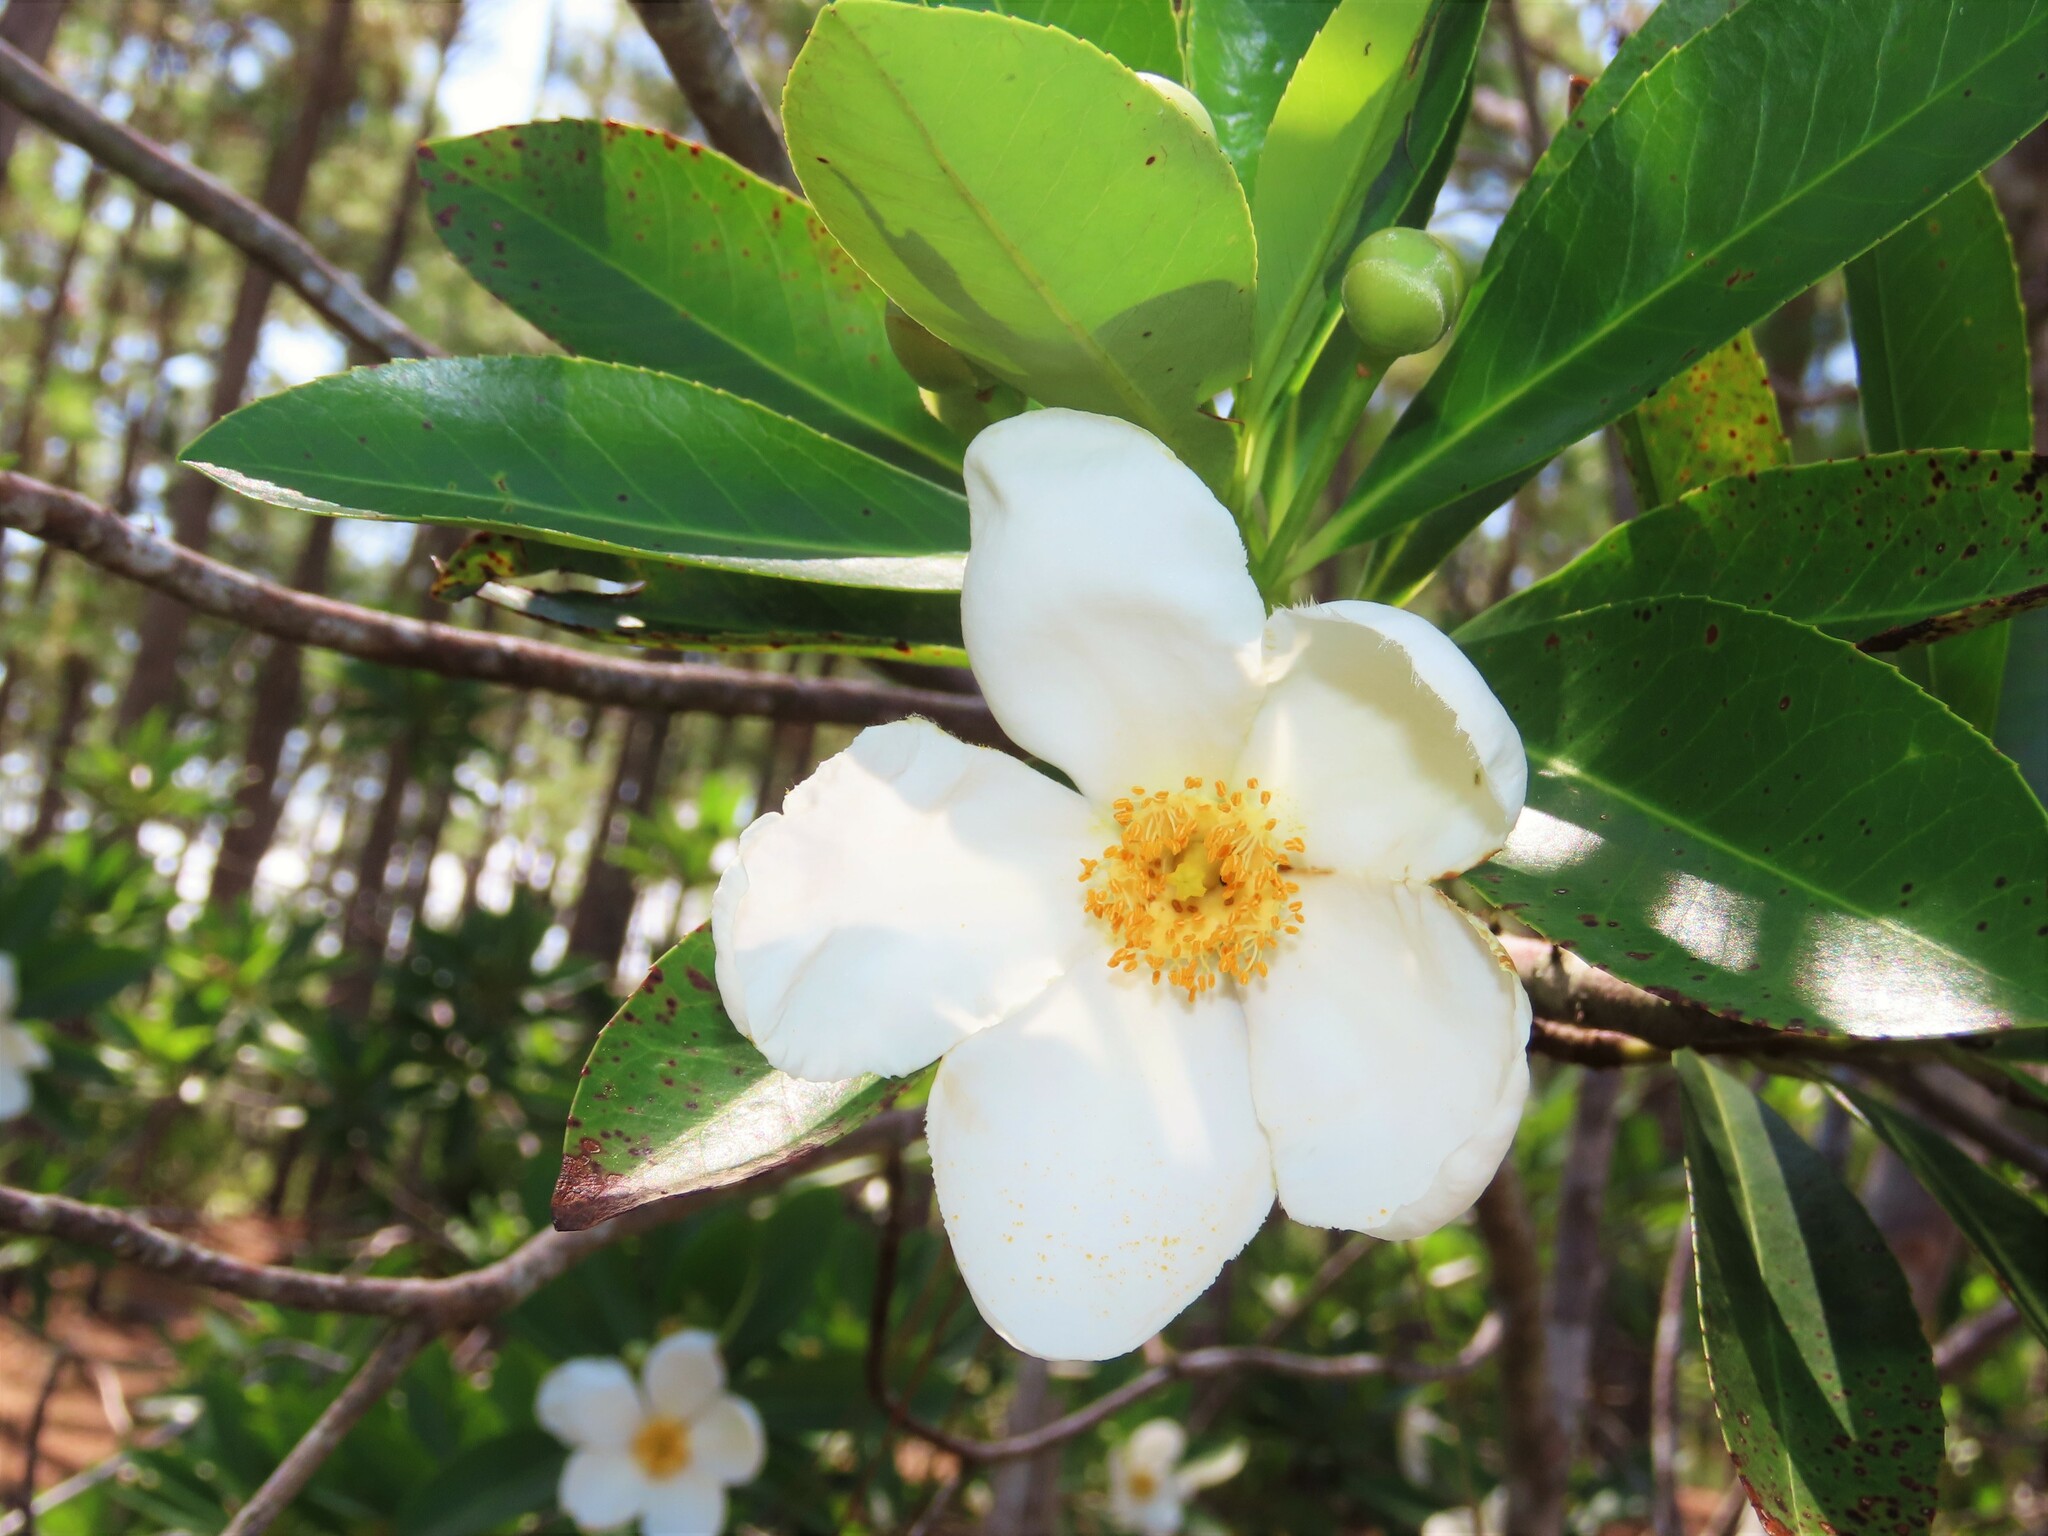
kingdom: Plantae
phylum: Tracheophyta
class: Magnoliopsida
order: Ericales
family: Theaceae
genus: Gordonia
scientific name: Gordonia lasianthus
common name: Loblolly bay
